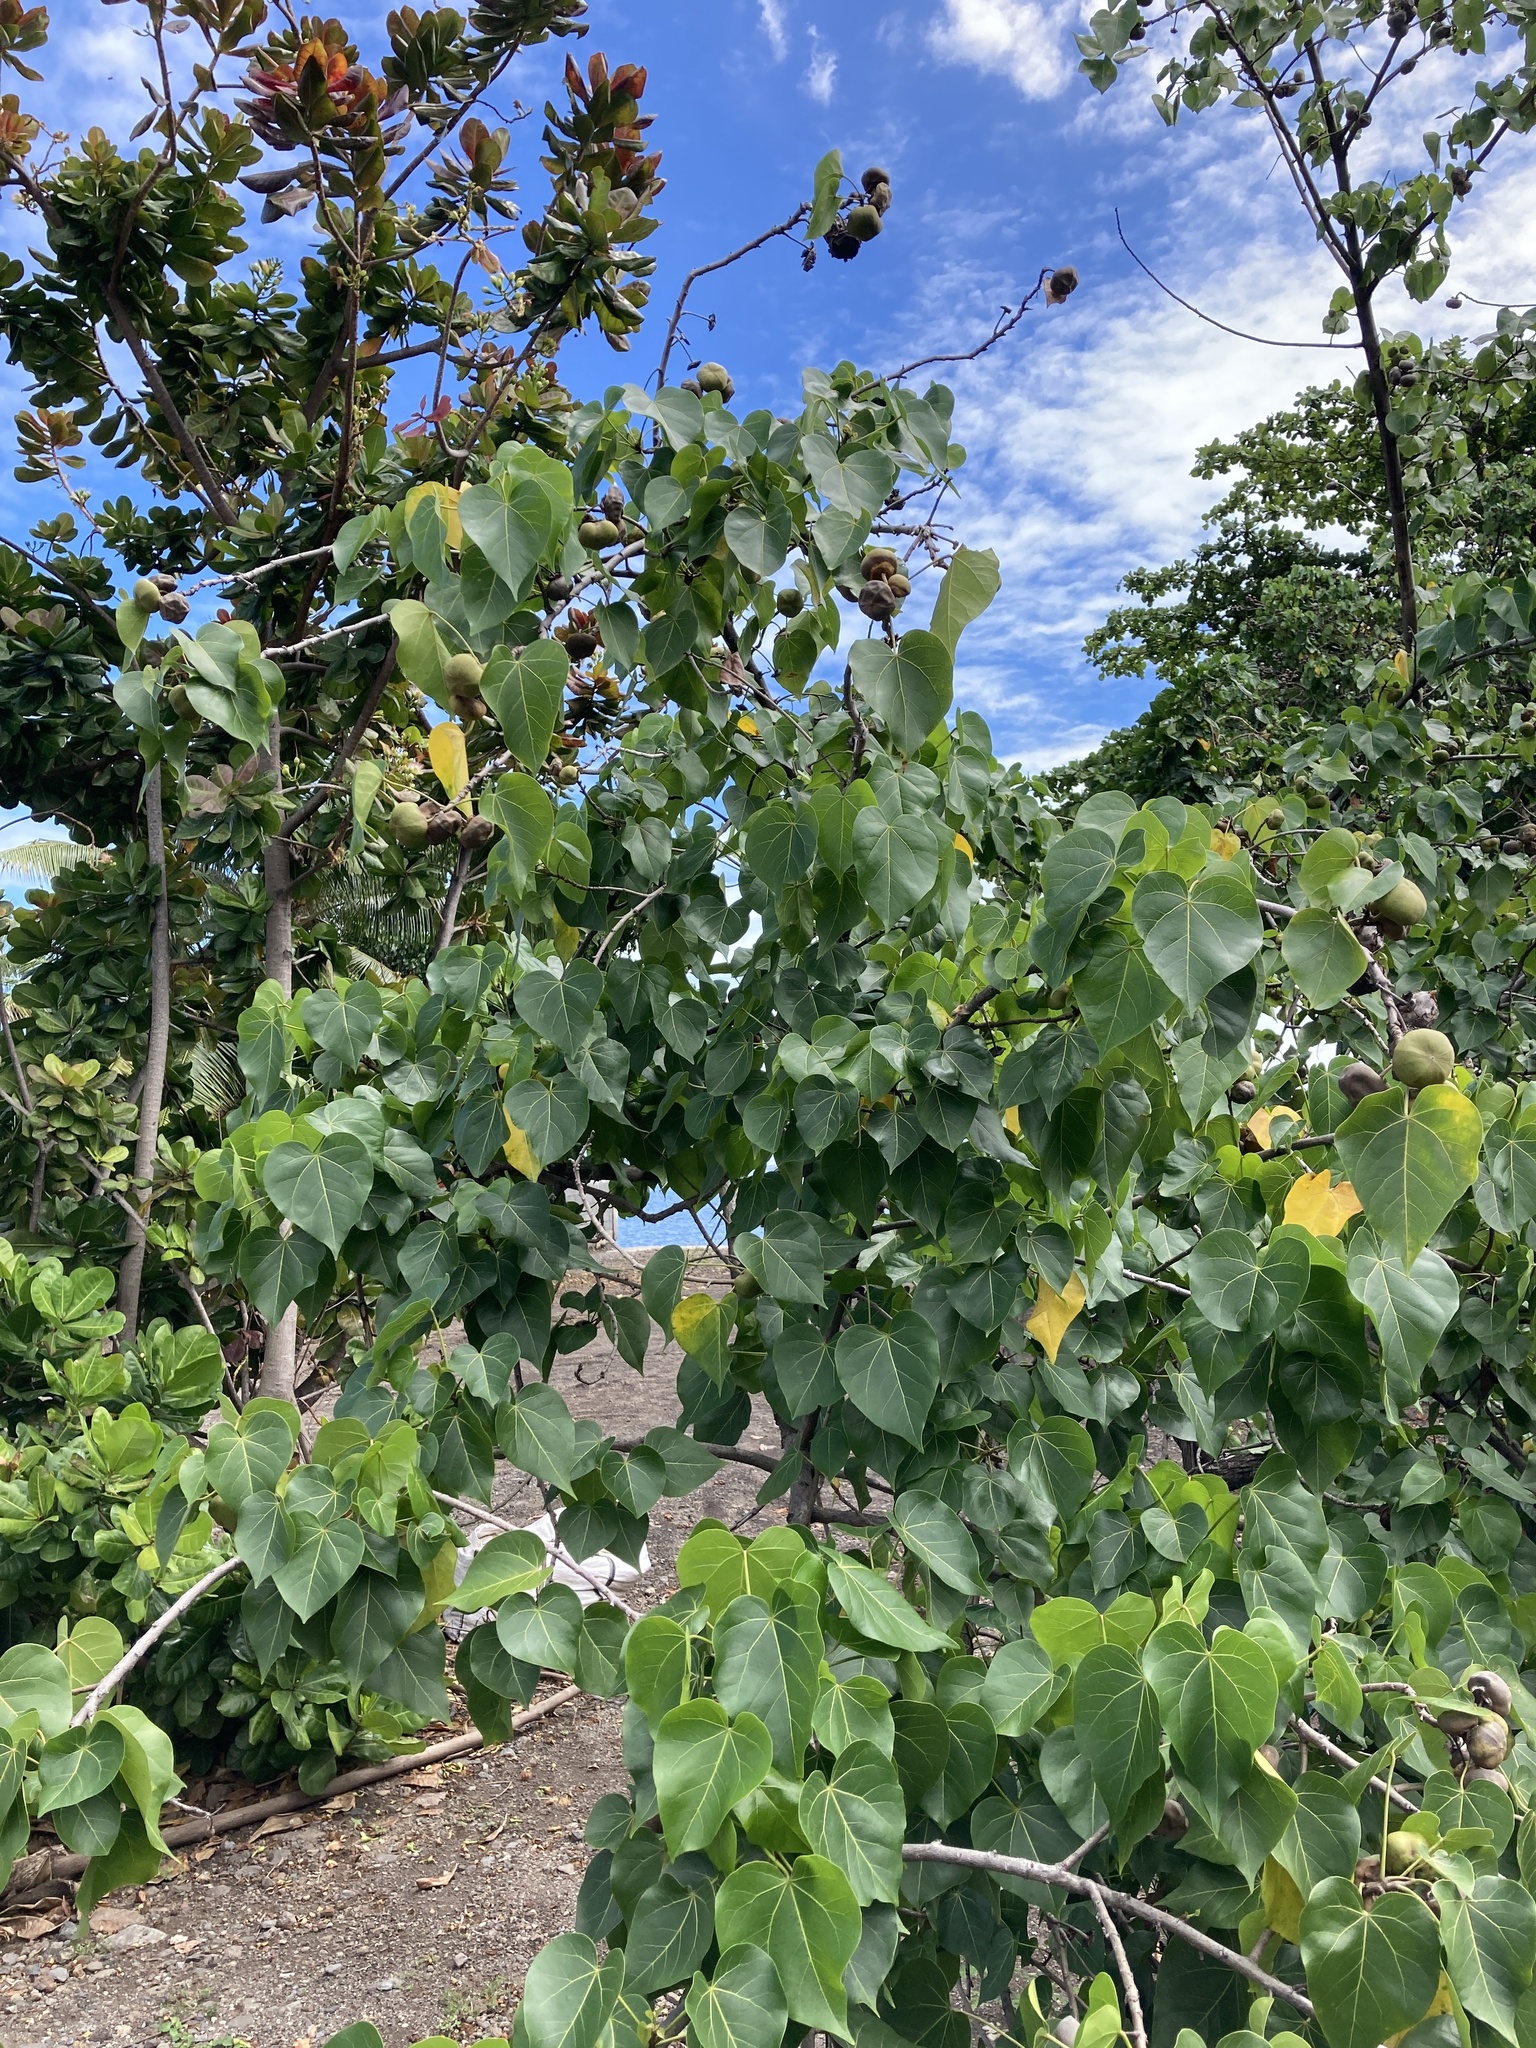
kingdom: Plantae
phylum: Tracheophyta
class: Magnoliopsida
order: Malvales
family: Malvaceae
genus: Thespesia
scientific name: Thespesia populnea
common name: Seaside mahoe
